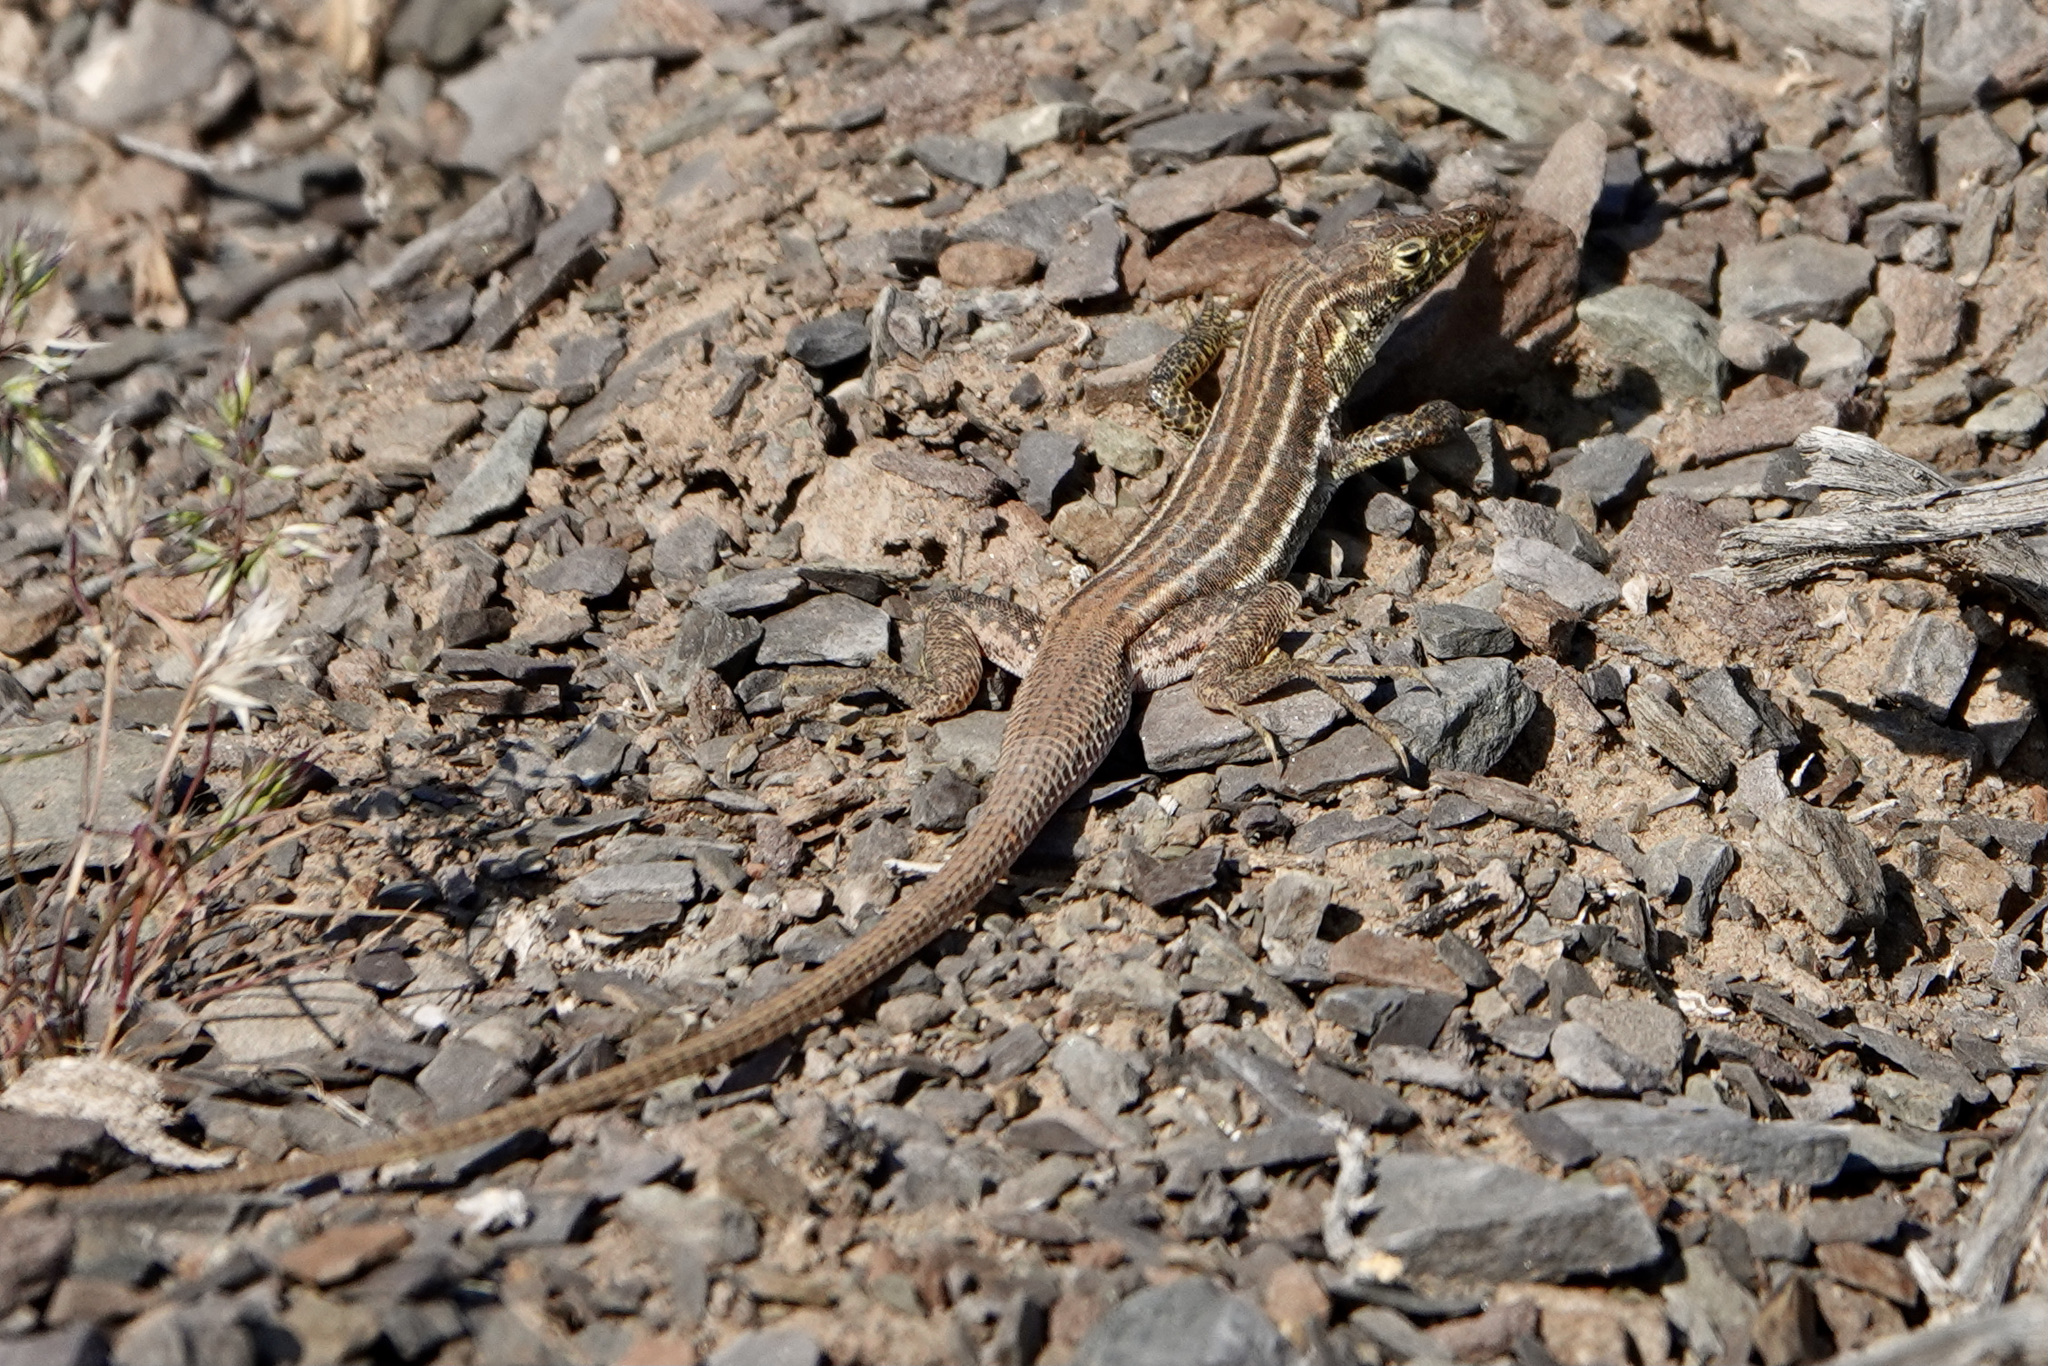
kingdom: Animalia
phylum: Chordata
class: Squamata
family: Lacertidae
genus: Pedioplanis
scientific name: Pedioplanis namaquensis
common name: Namaqua sand lizard
